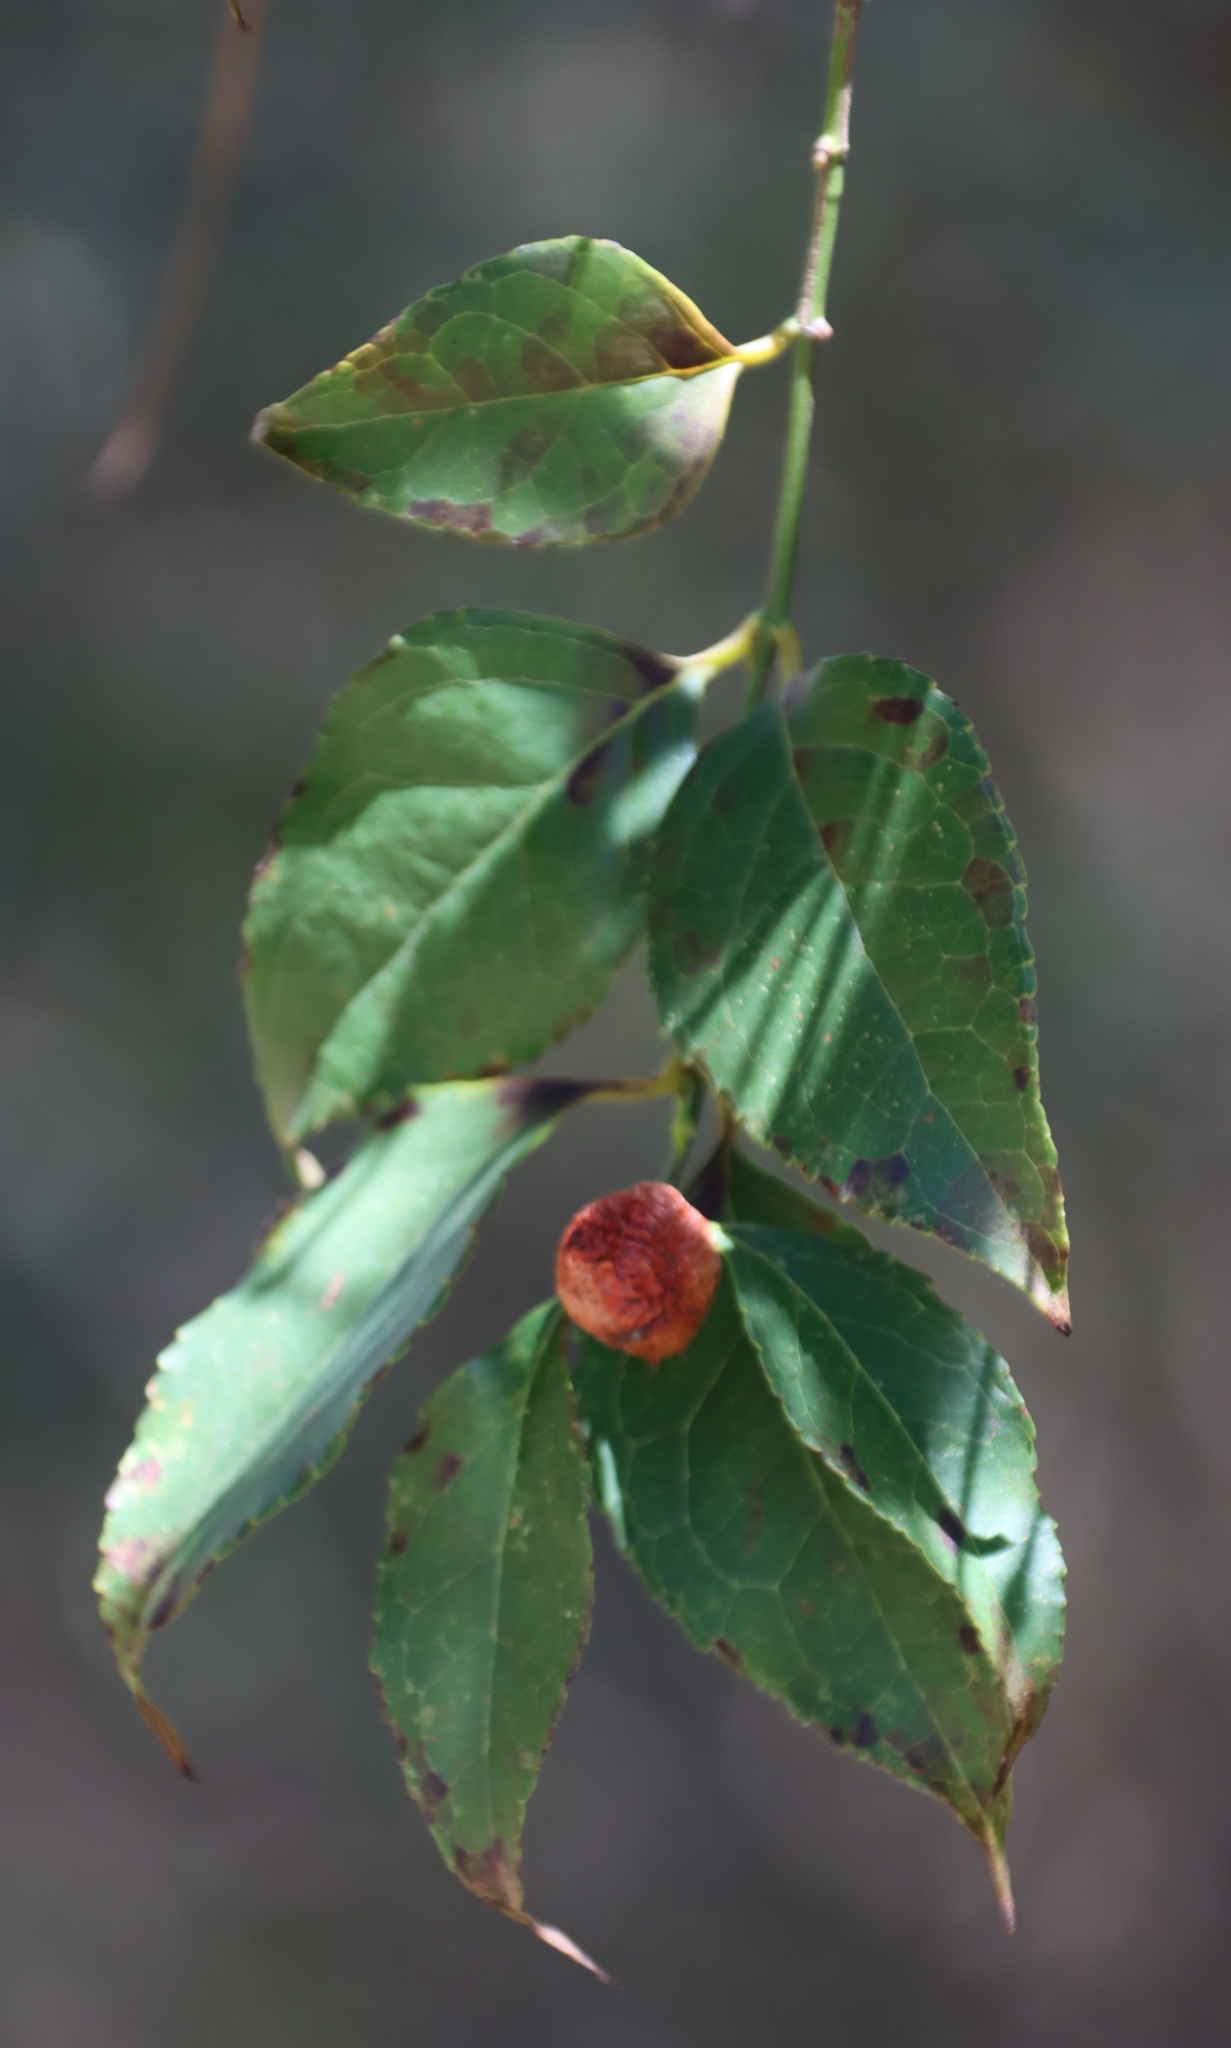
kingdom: Plantae
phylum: Tracheophyta
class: Magnoliopsida
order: Lamiales
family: Stilbaceae
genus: Halleria
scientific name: Halleria lucida
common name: Tree fuschia
